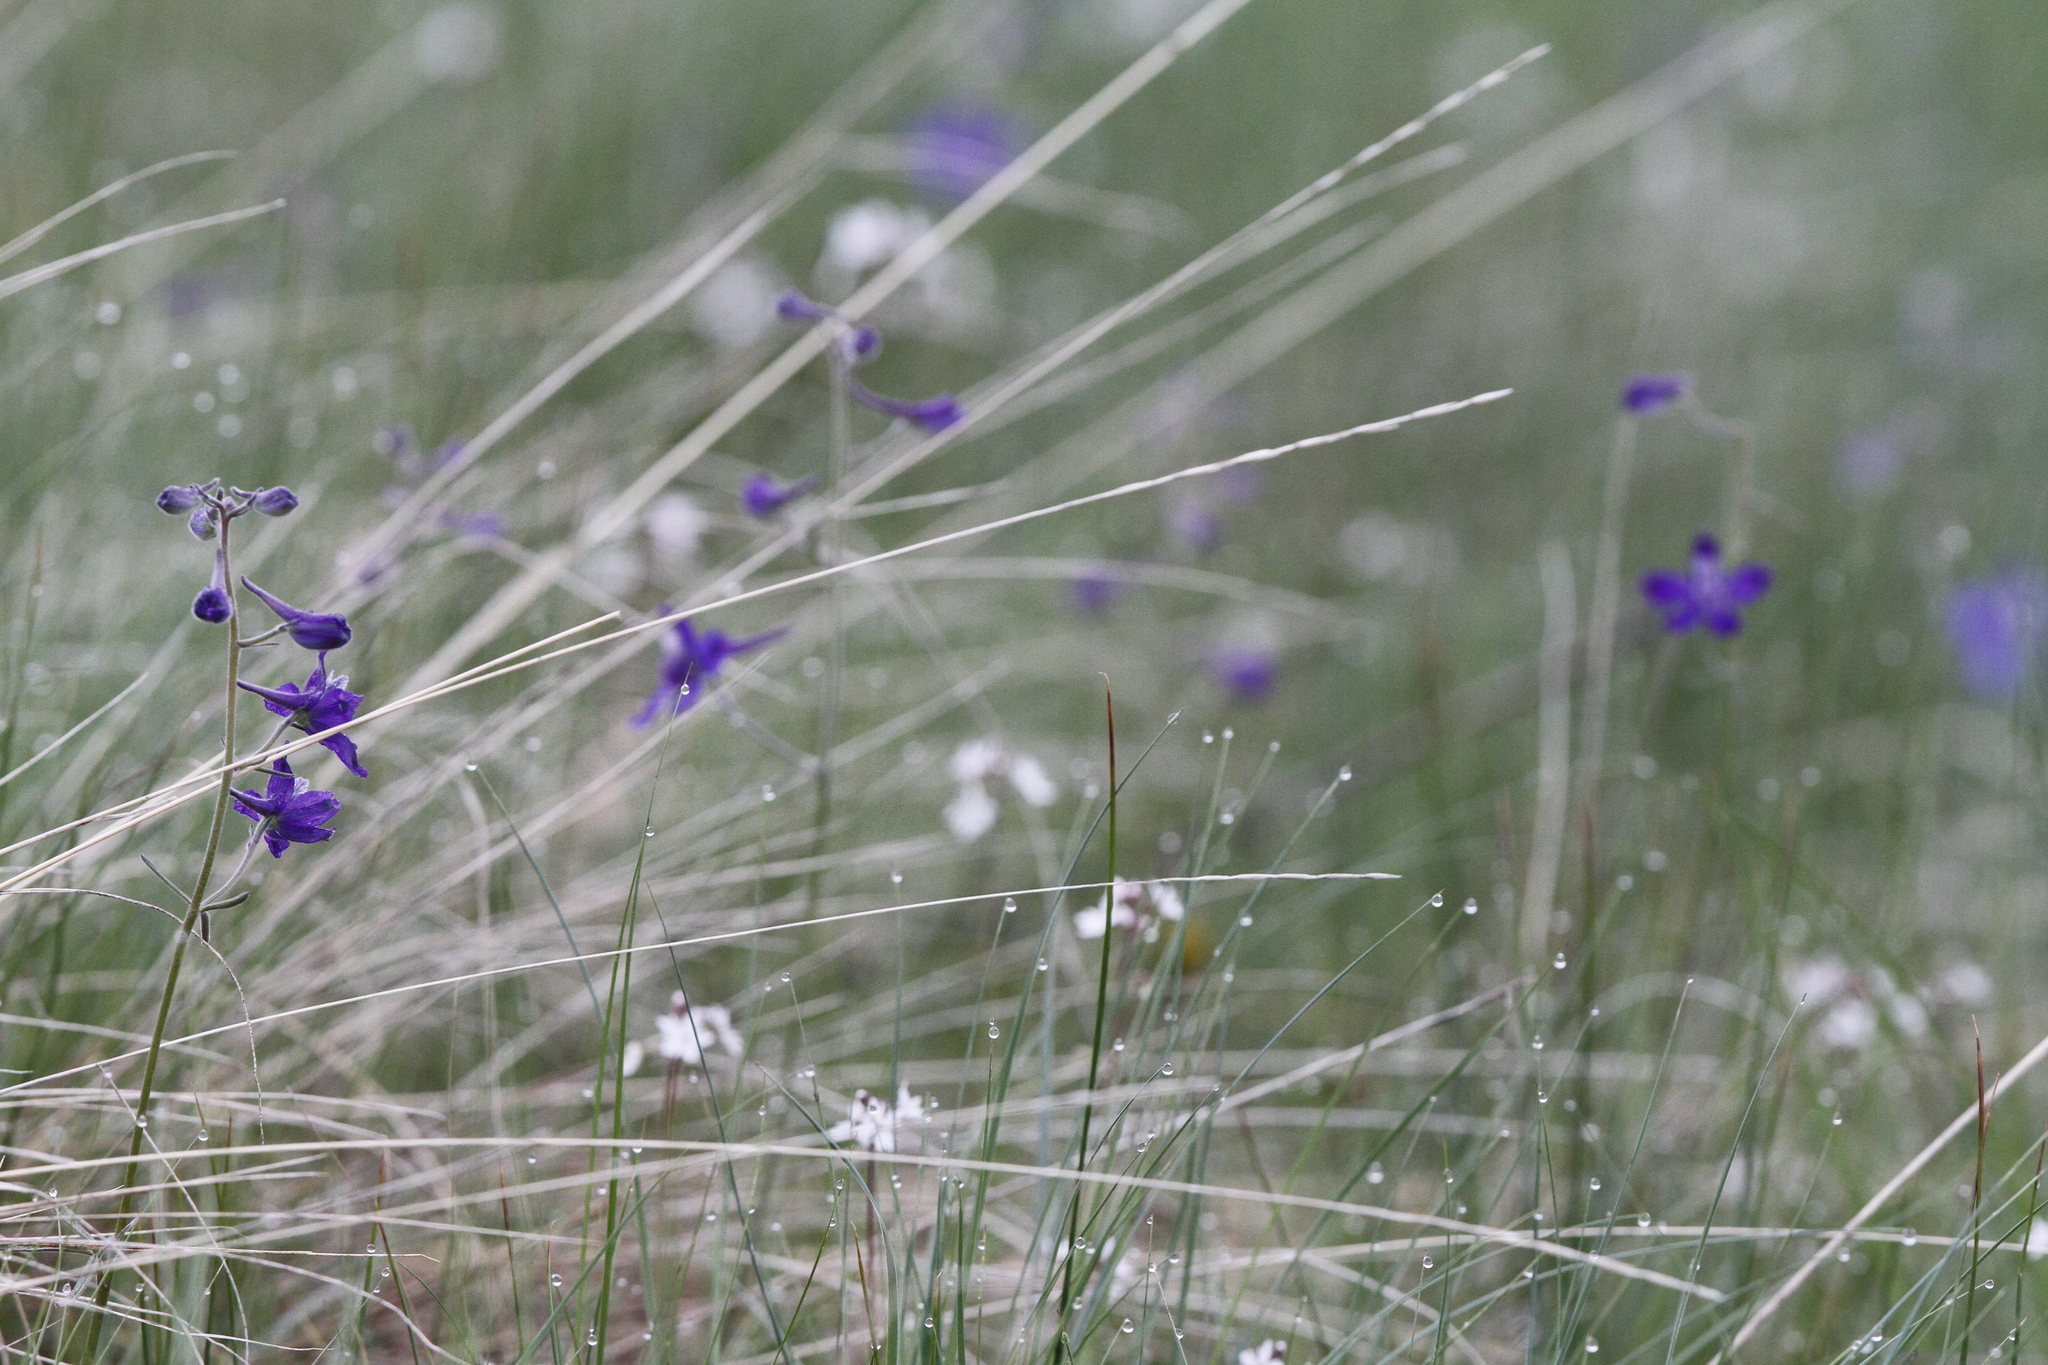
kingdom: Plantae
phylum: Tracheophyta
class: Magnoliopsida
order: Ranunculales
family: Ranunculaceae
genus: Delphinium
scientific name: Delphinium nuttallianum
